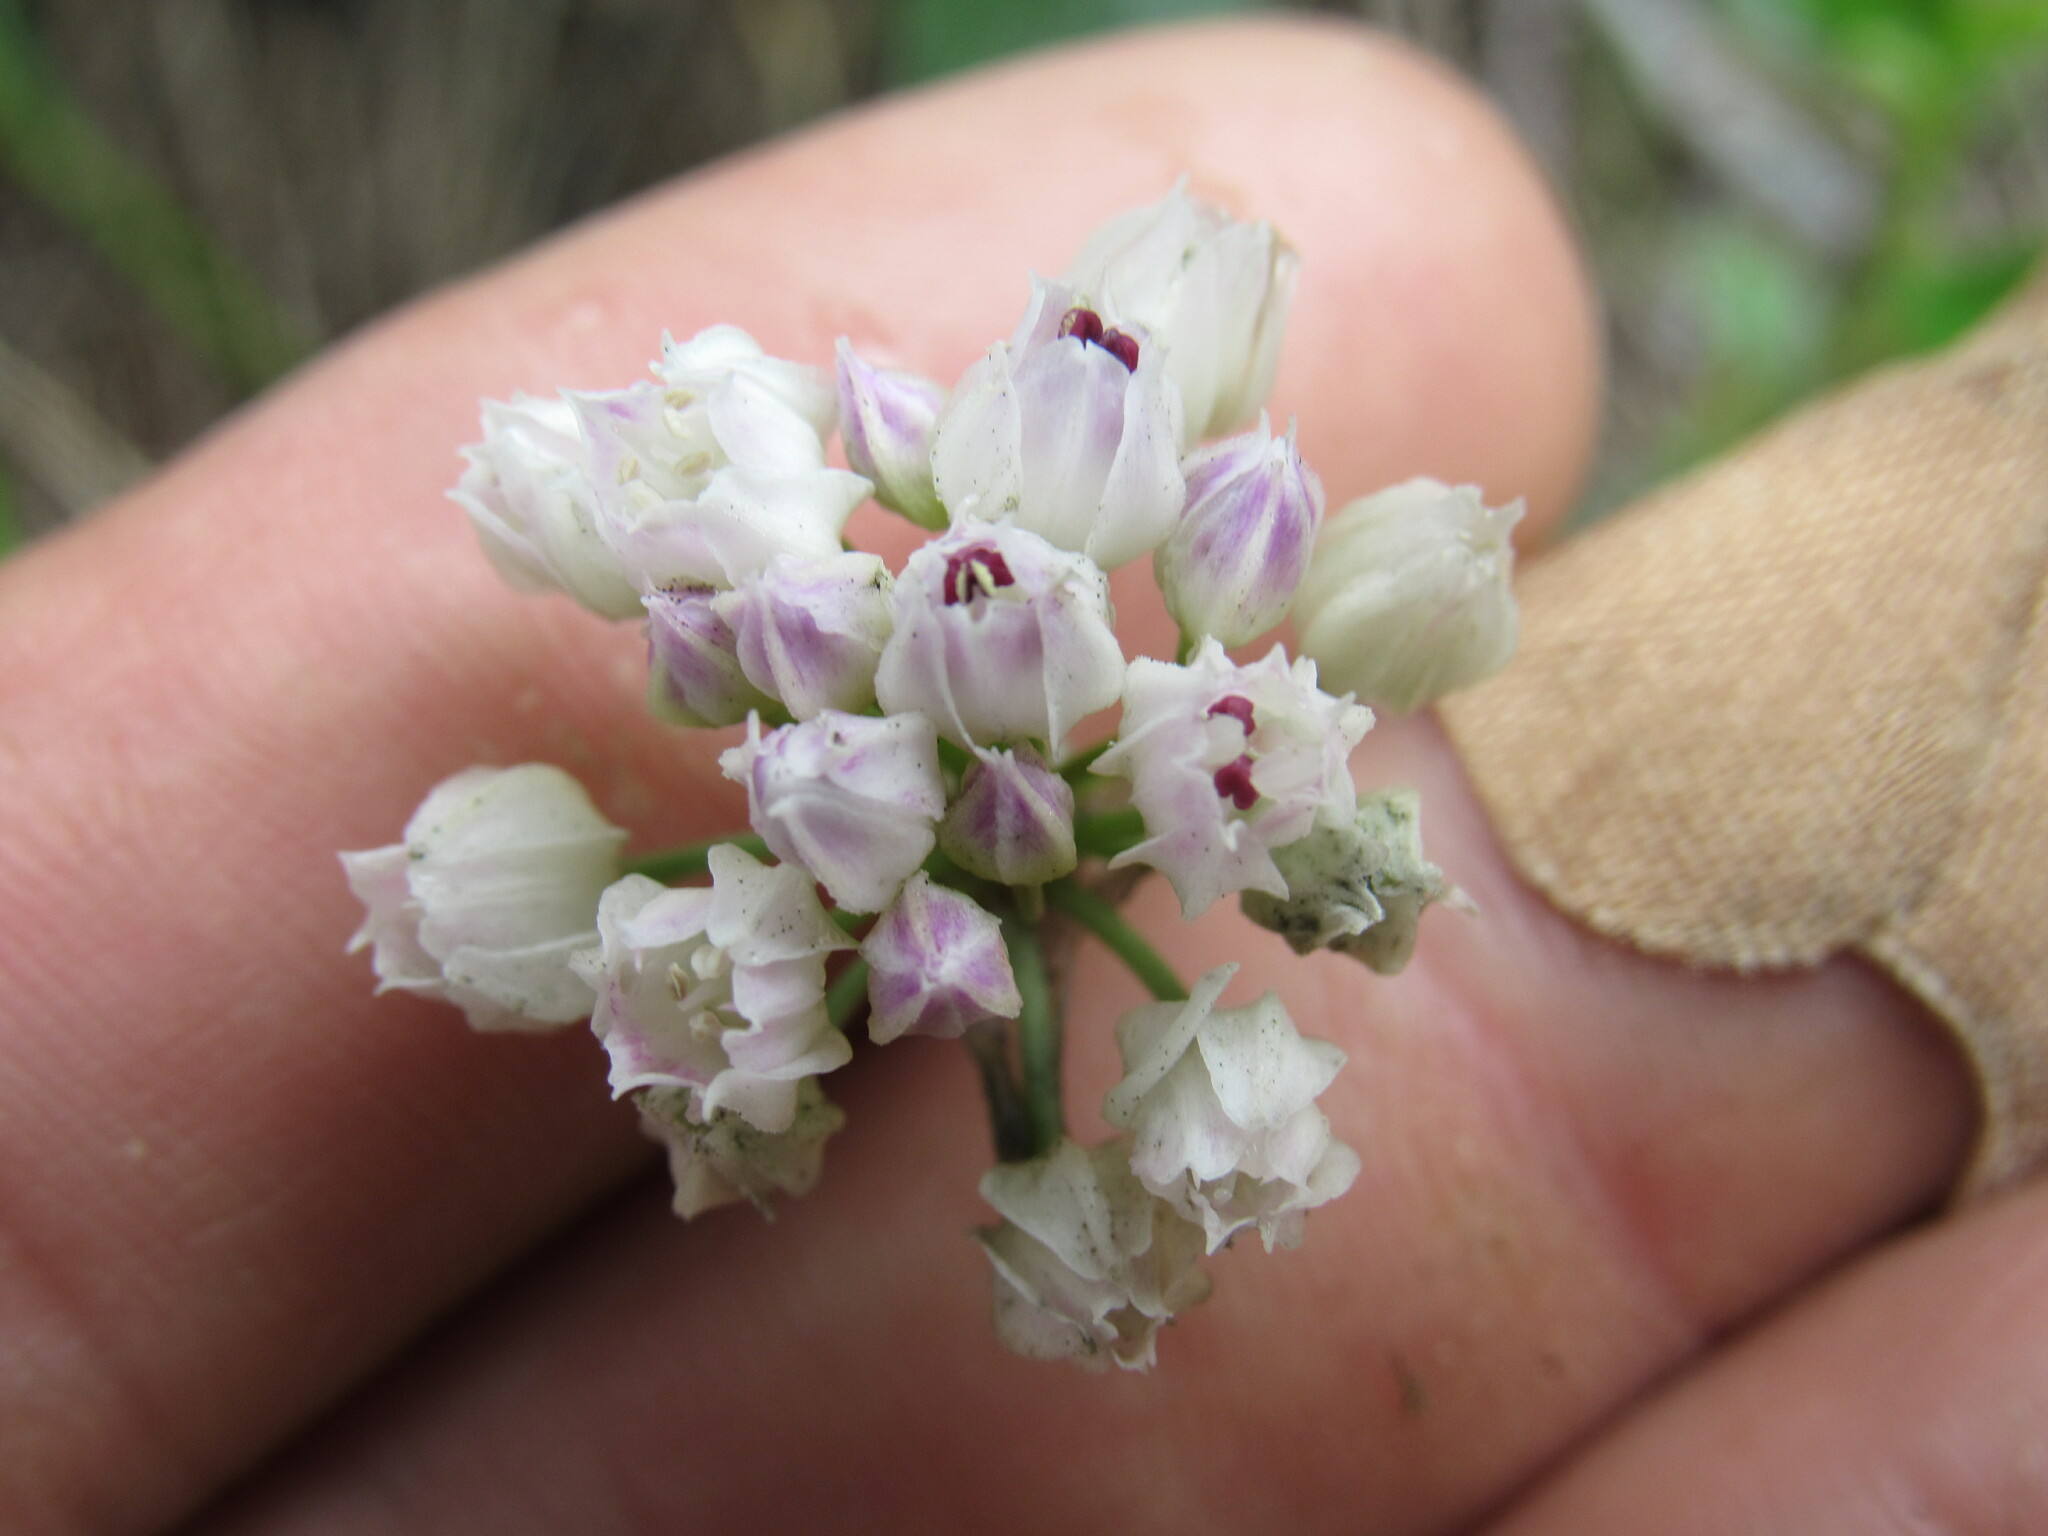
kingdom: Plantae
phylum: Tracheophyta
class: Liliopsida
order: Asparagales
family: Amaryllidaceae
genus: Allium
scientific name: Allium geyeri
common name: Geyer's onion
